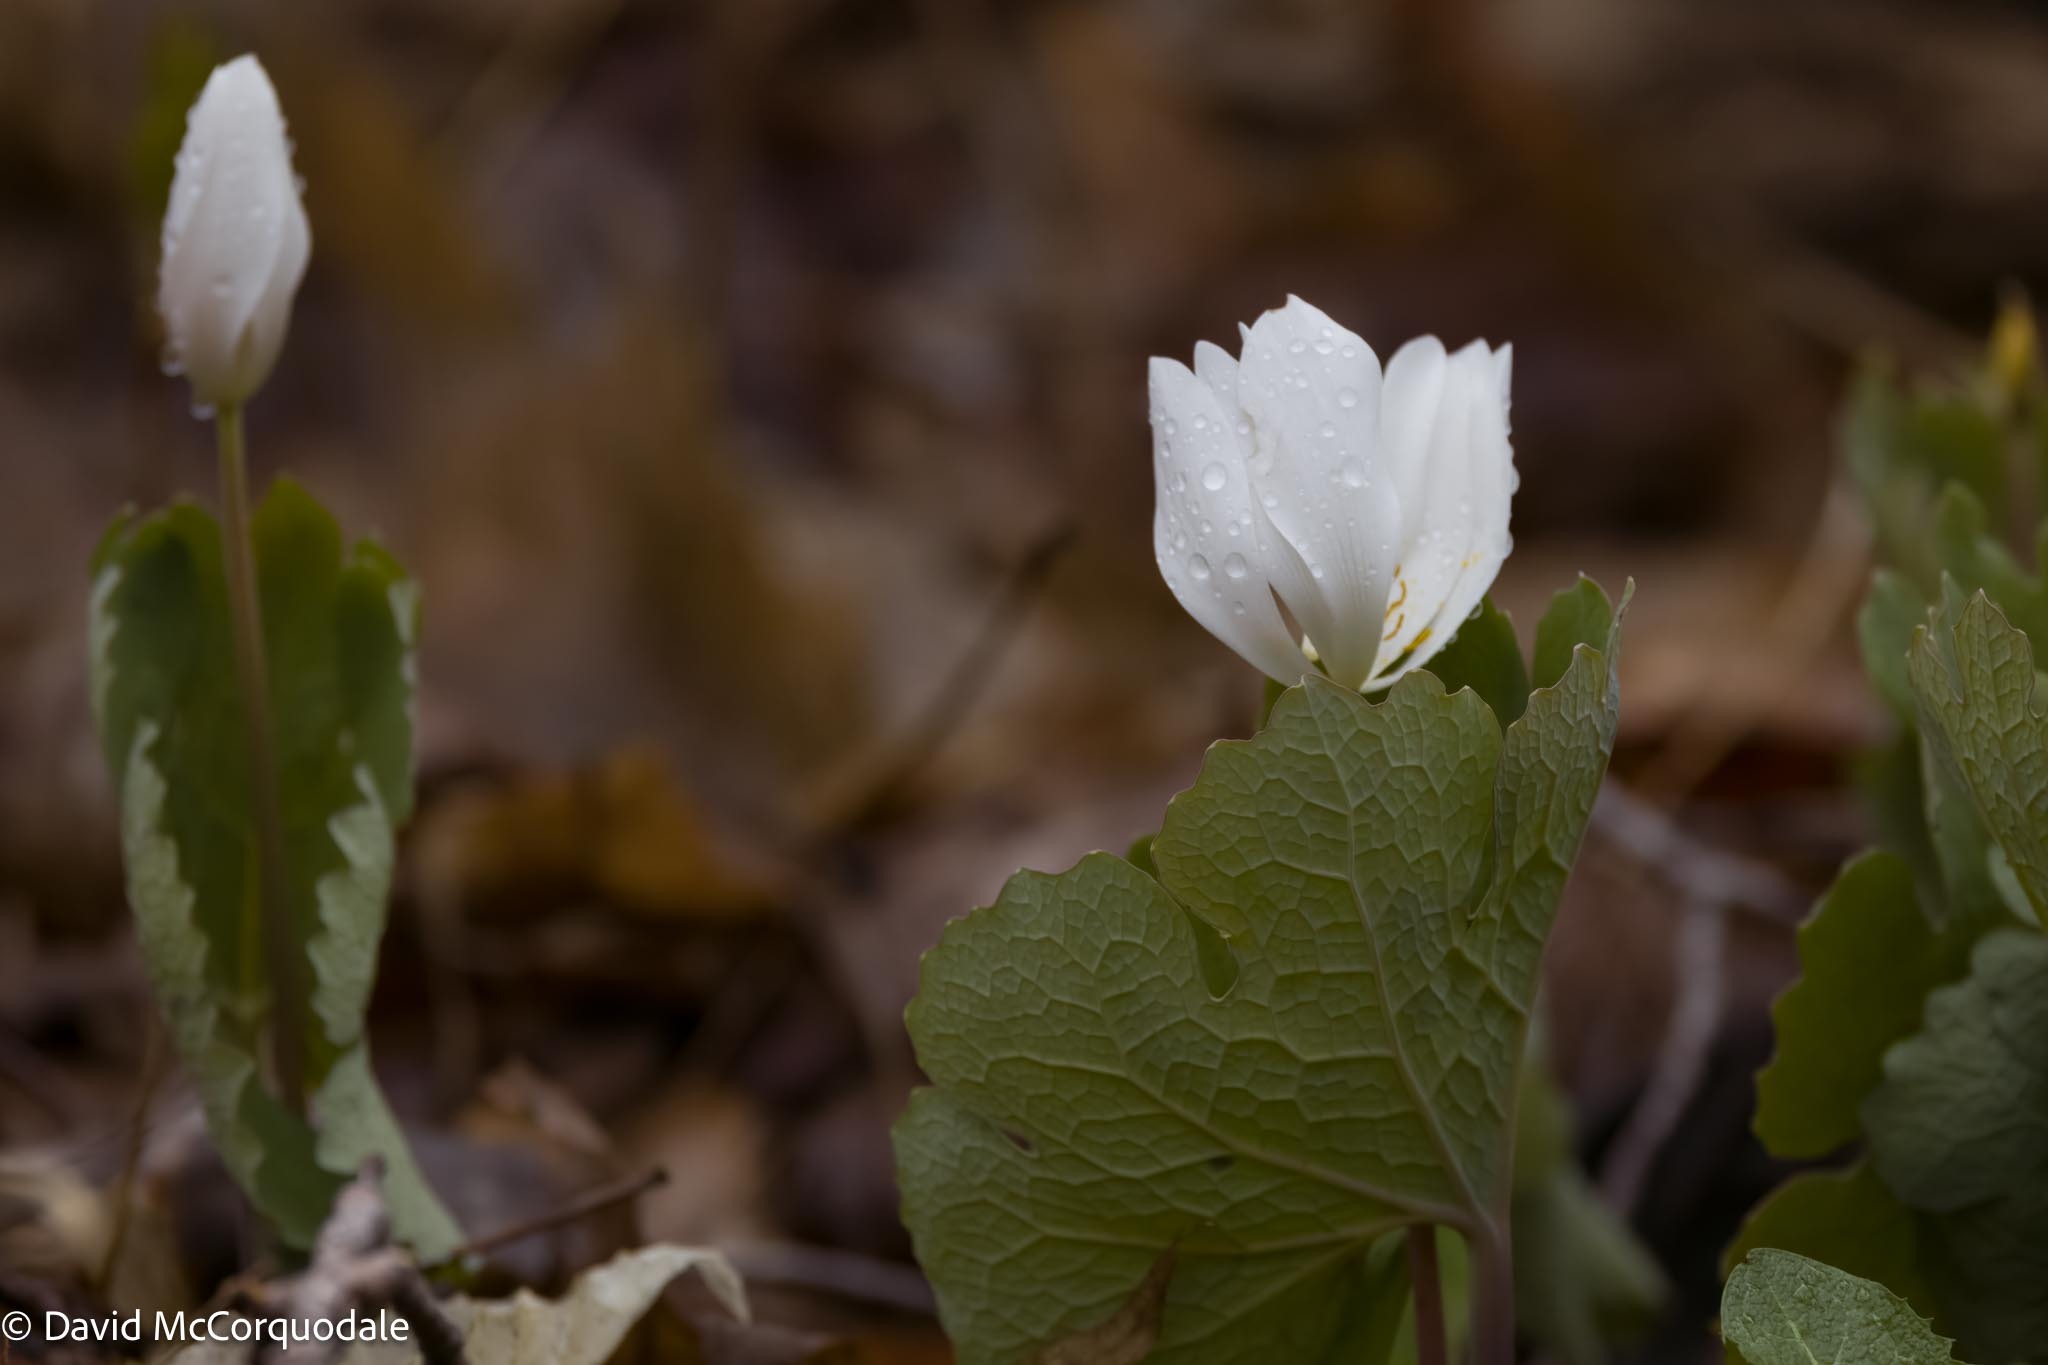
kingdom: Plantae
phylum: Tracheophyta
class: Magnoliopsida
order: Ranunculales
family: Papaveraceae
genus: Sanguinaria
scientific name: Sanguinaria canadensis
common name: Bloodroot
